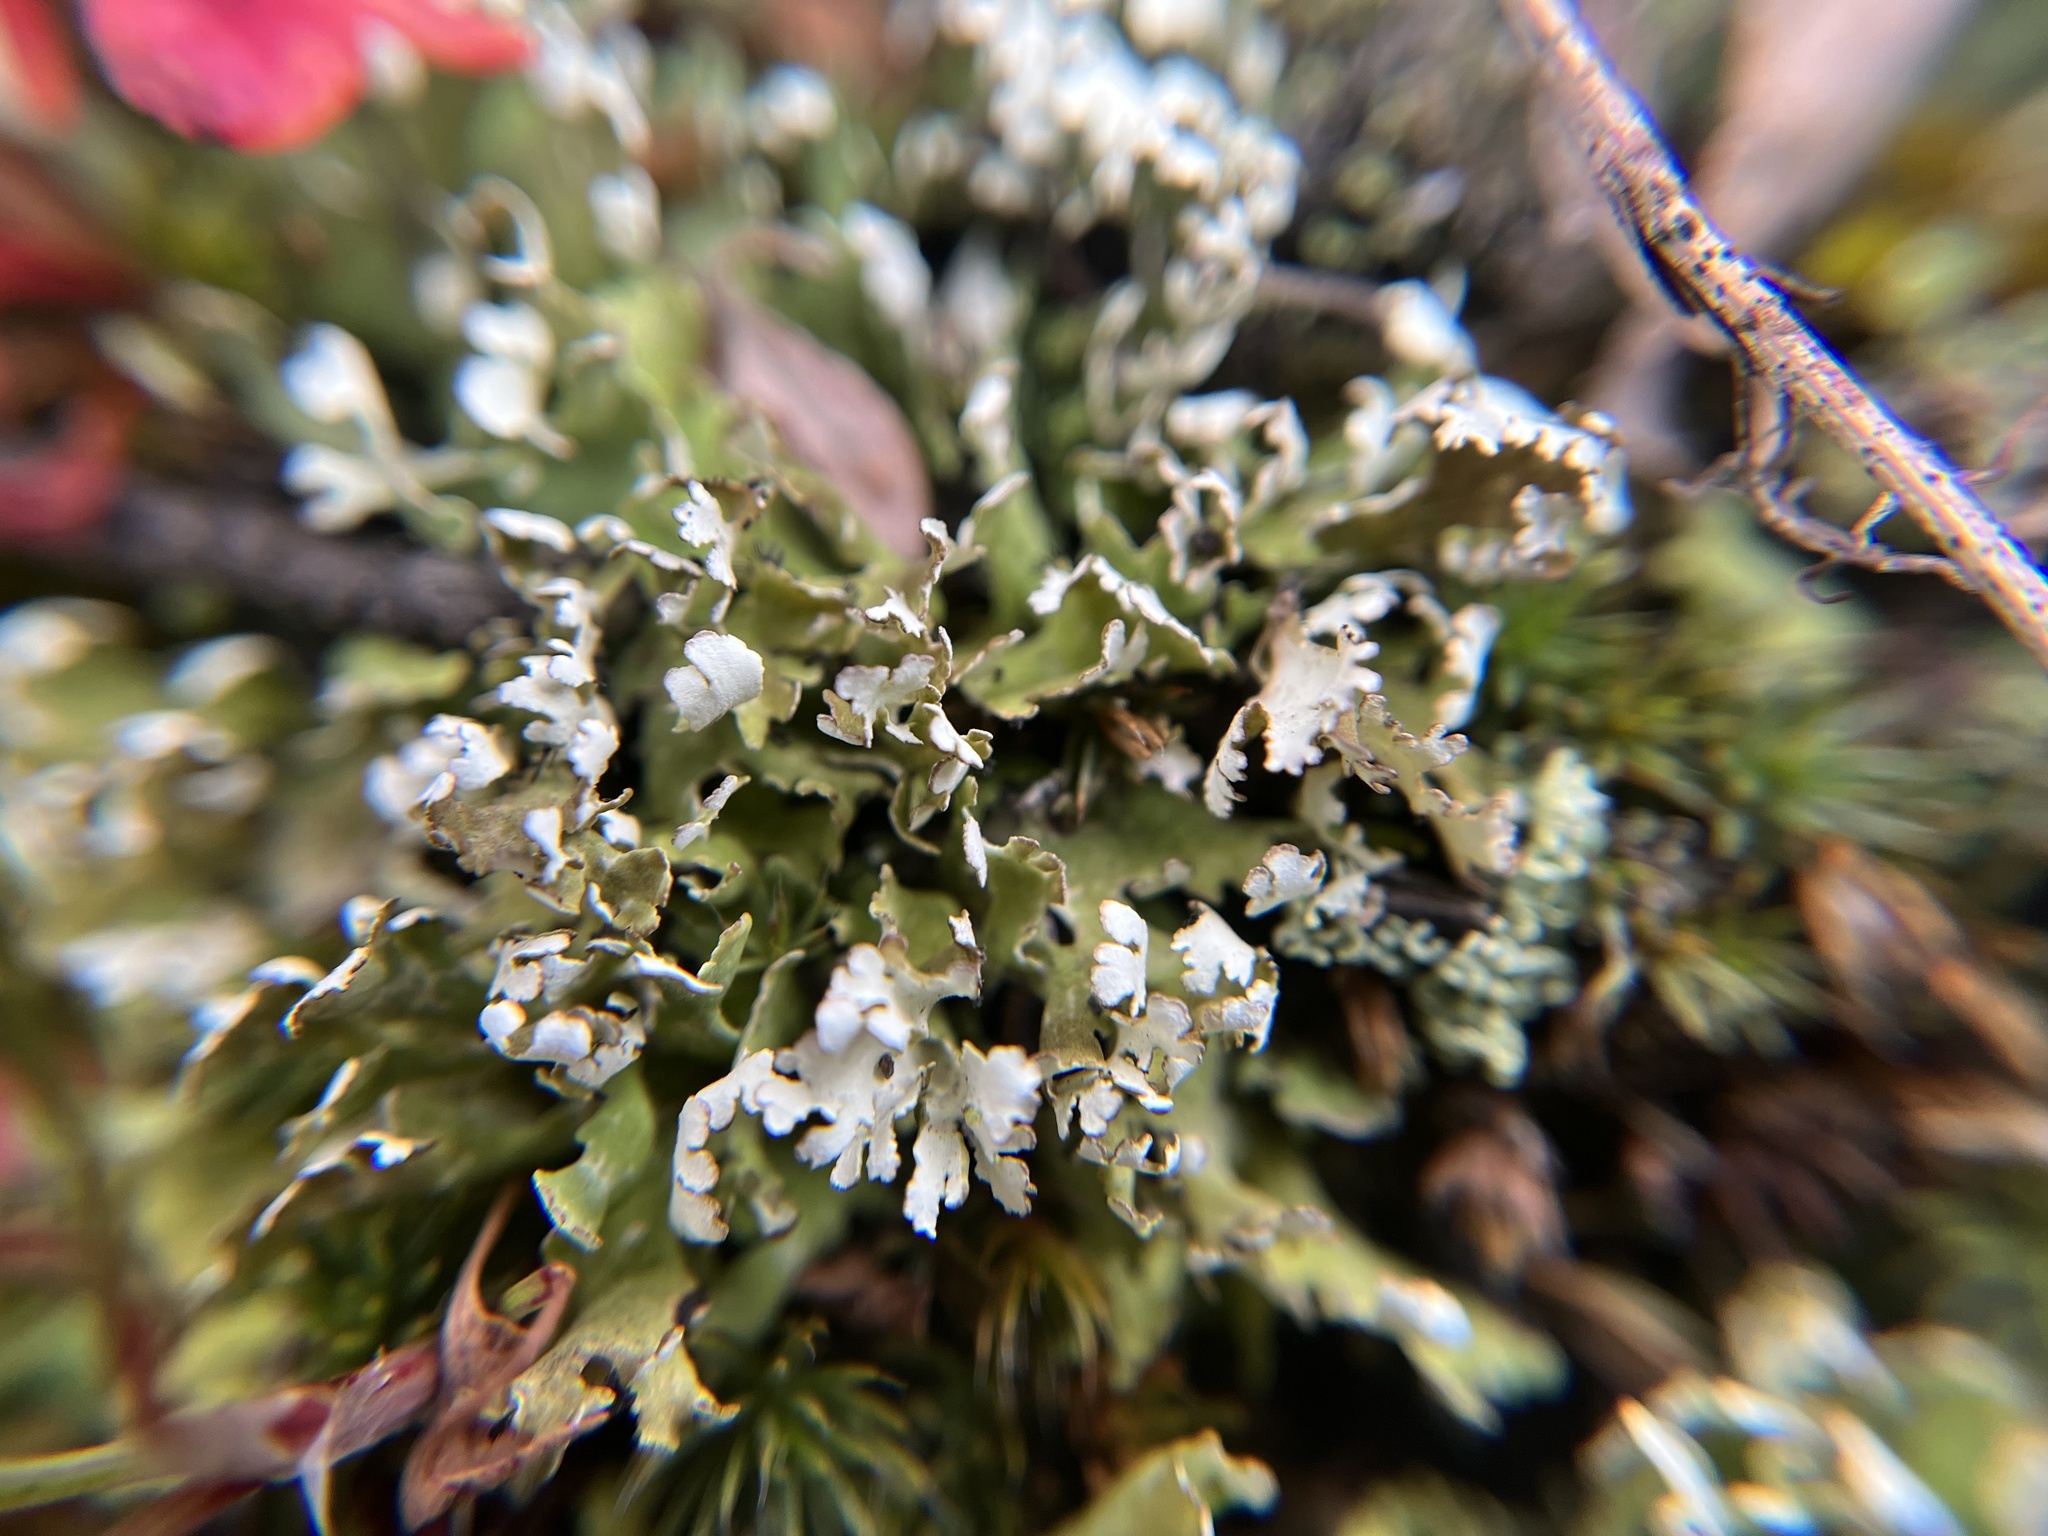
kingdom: Fungi
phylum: Ascomycota
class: Lecanoromycetes
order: Lecanorales
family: Cladoniaceae
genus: Cladonia
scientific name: Cladonia foliacea
